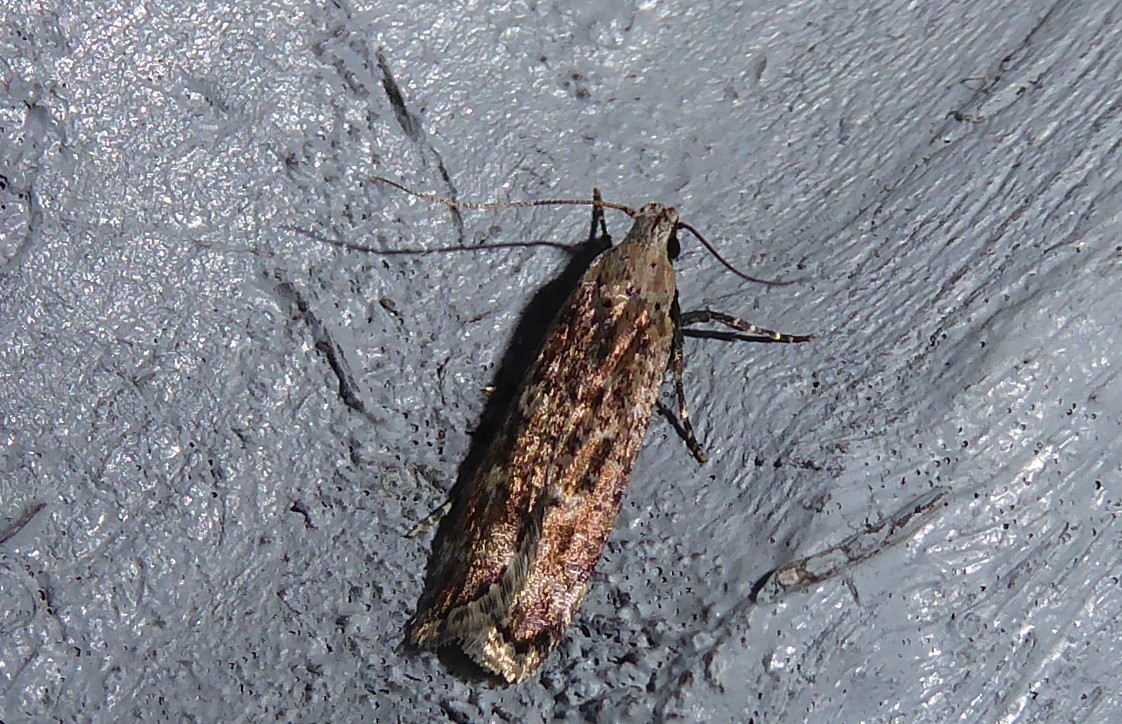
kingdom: Animalia
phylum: Arthropoda
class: Insecta
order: Lepidoptera
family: Gelechiidae
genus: Anisoplaca
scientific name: Anisoplaca achyrota
